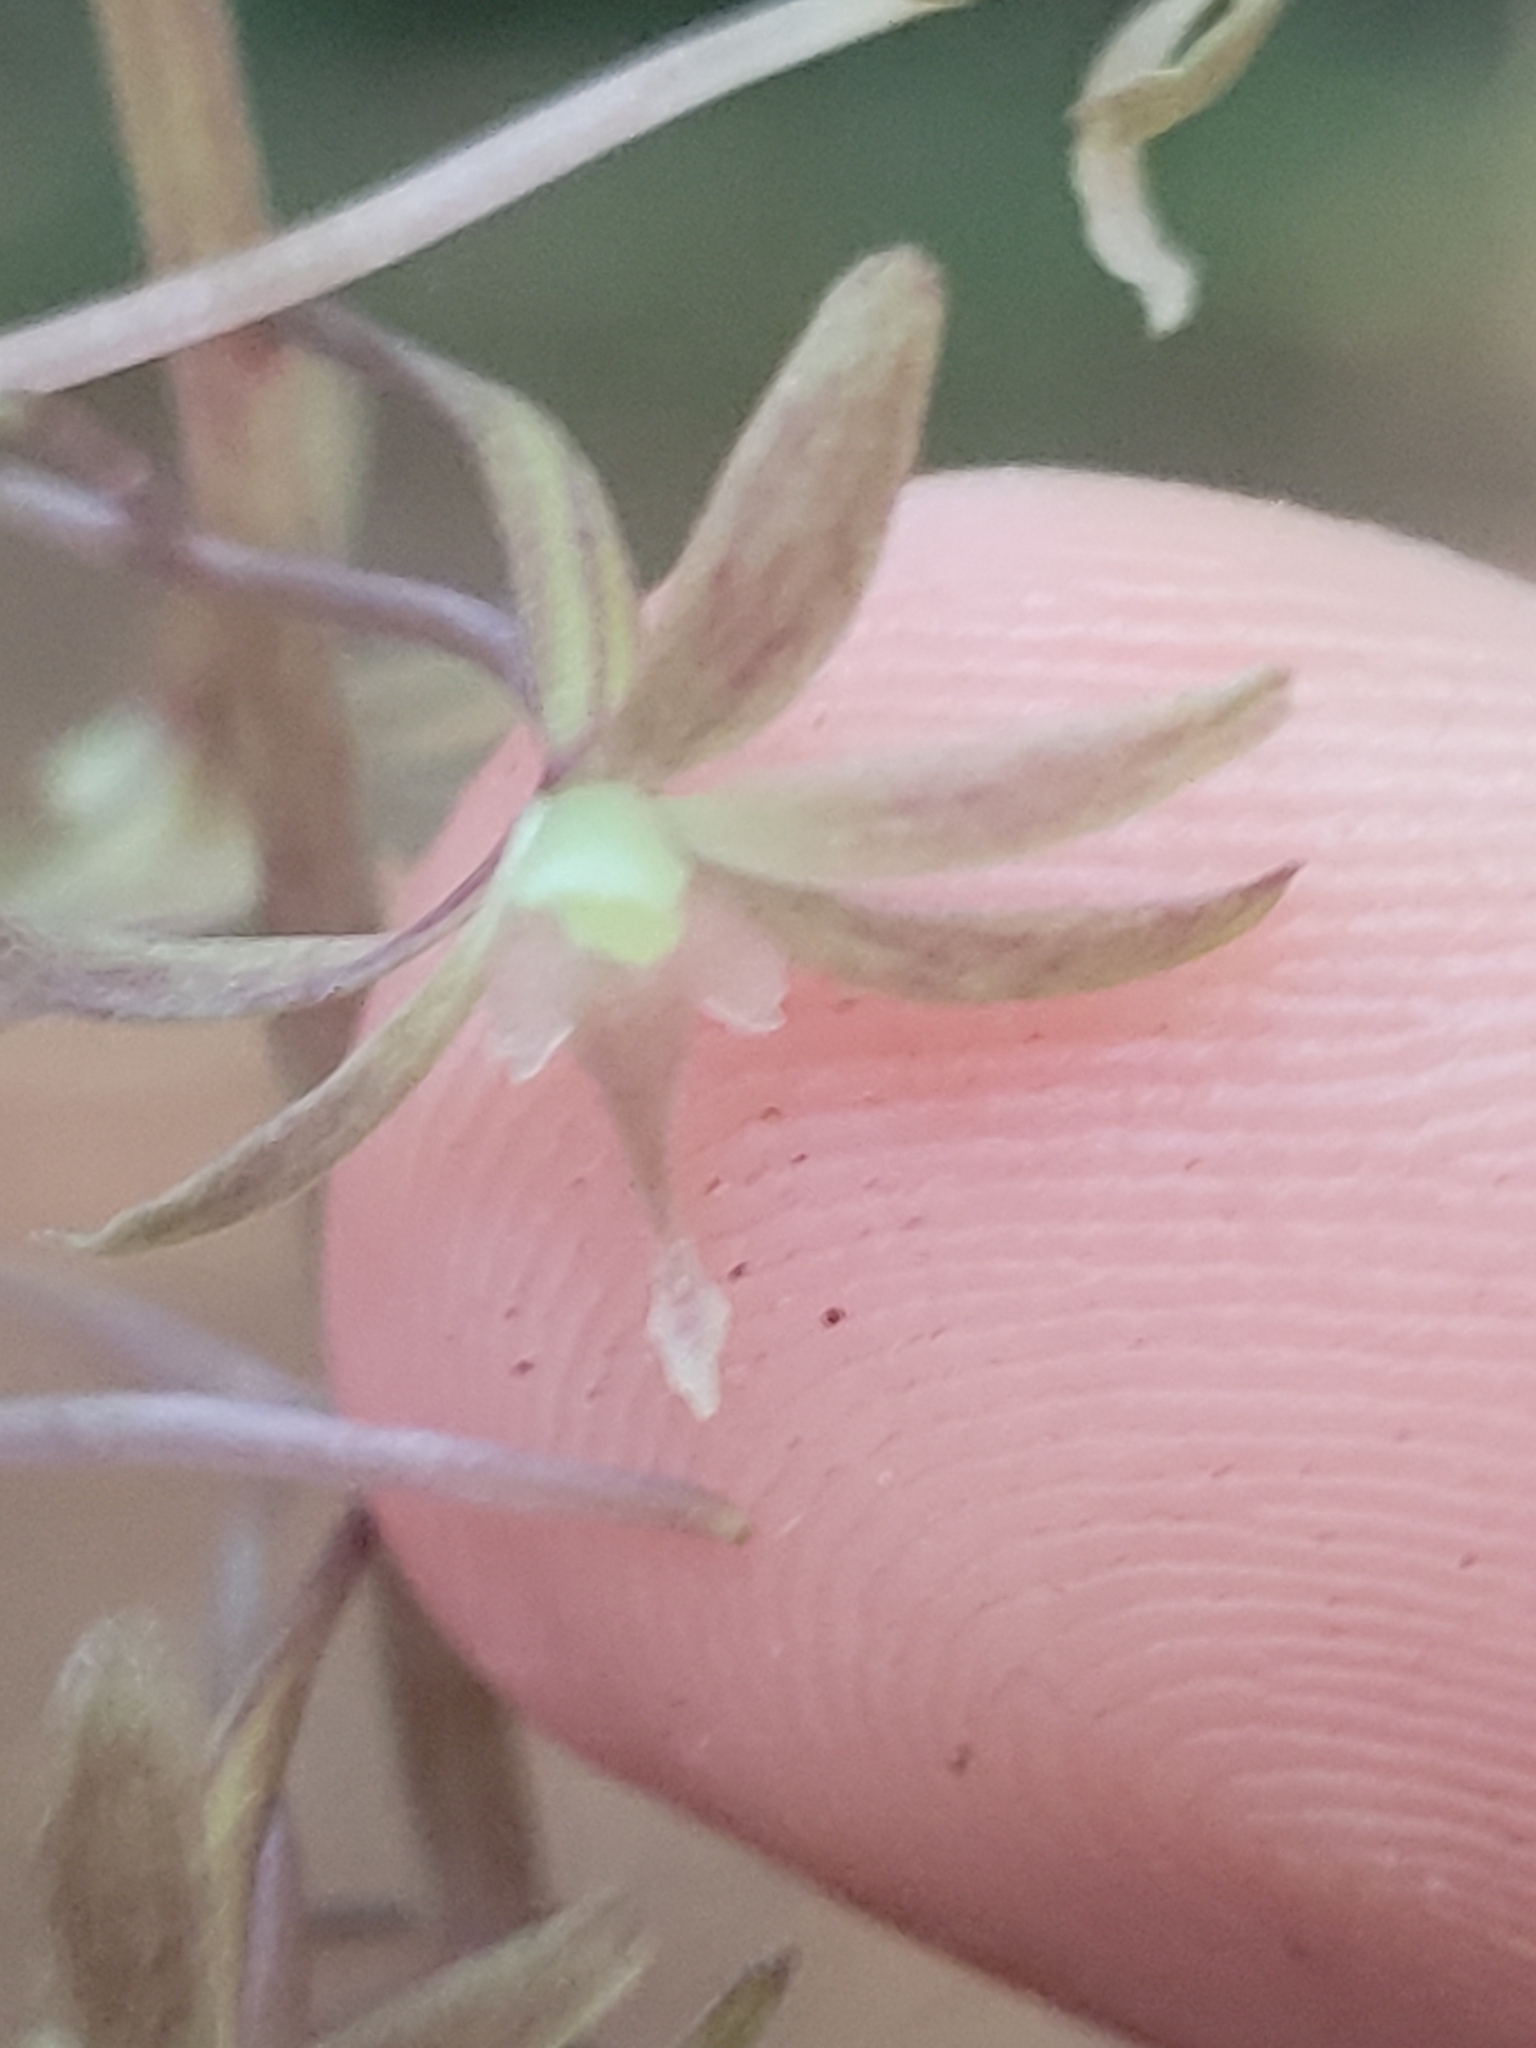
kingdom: Plantae
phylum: Tracheophyta
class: Liliopsida
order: Asparagales
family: Orchidaceae
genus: Tipularia
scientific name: Tipularia discolor
